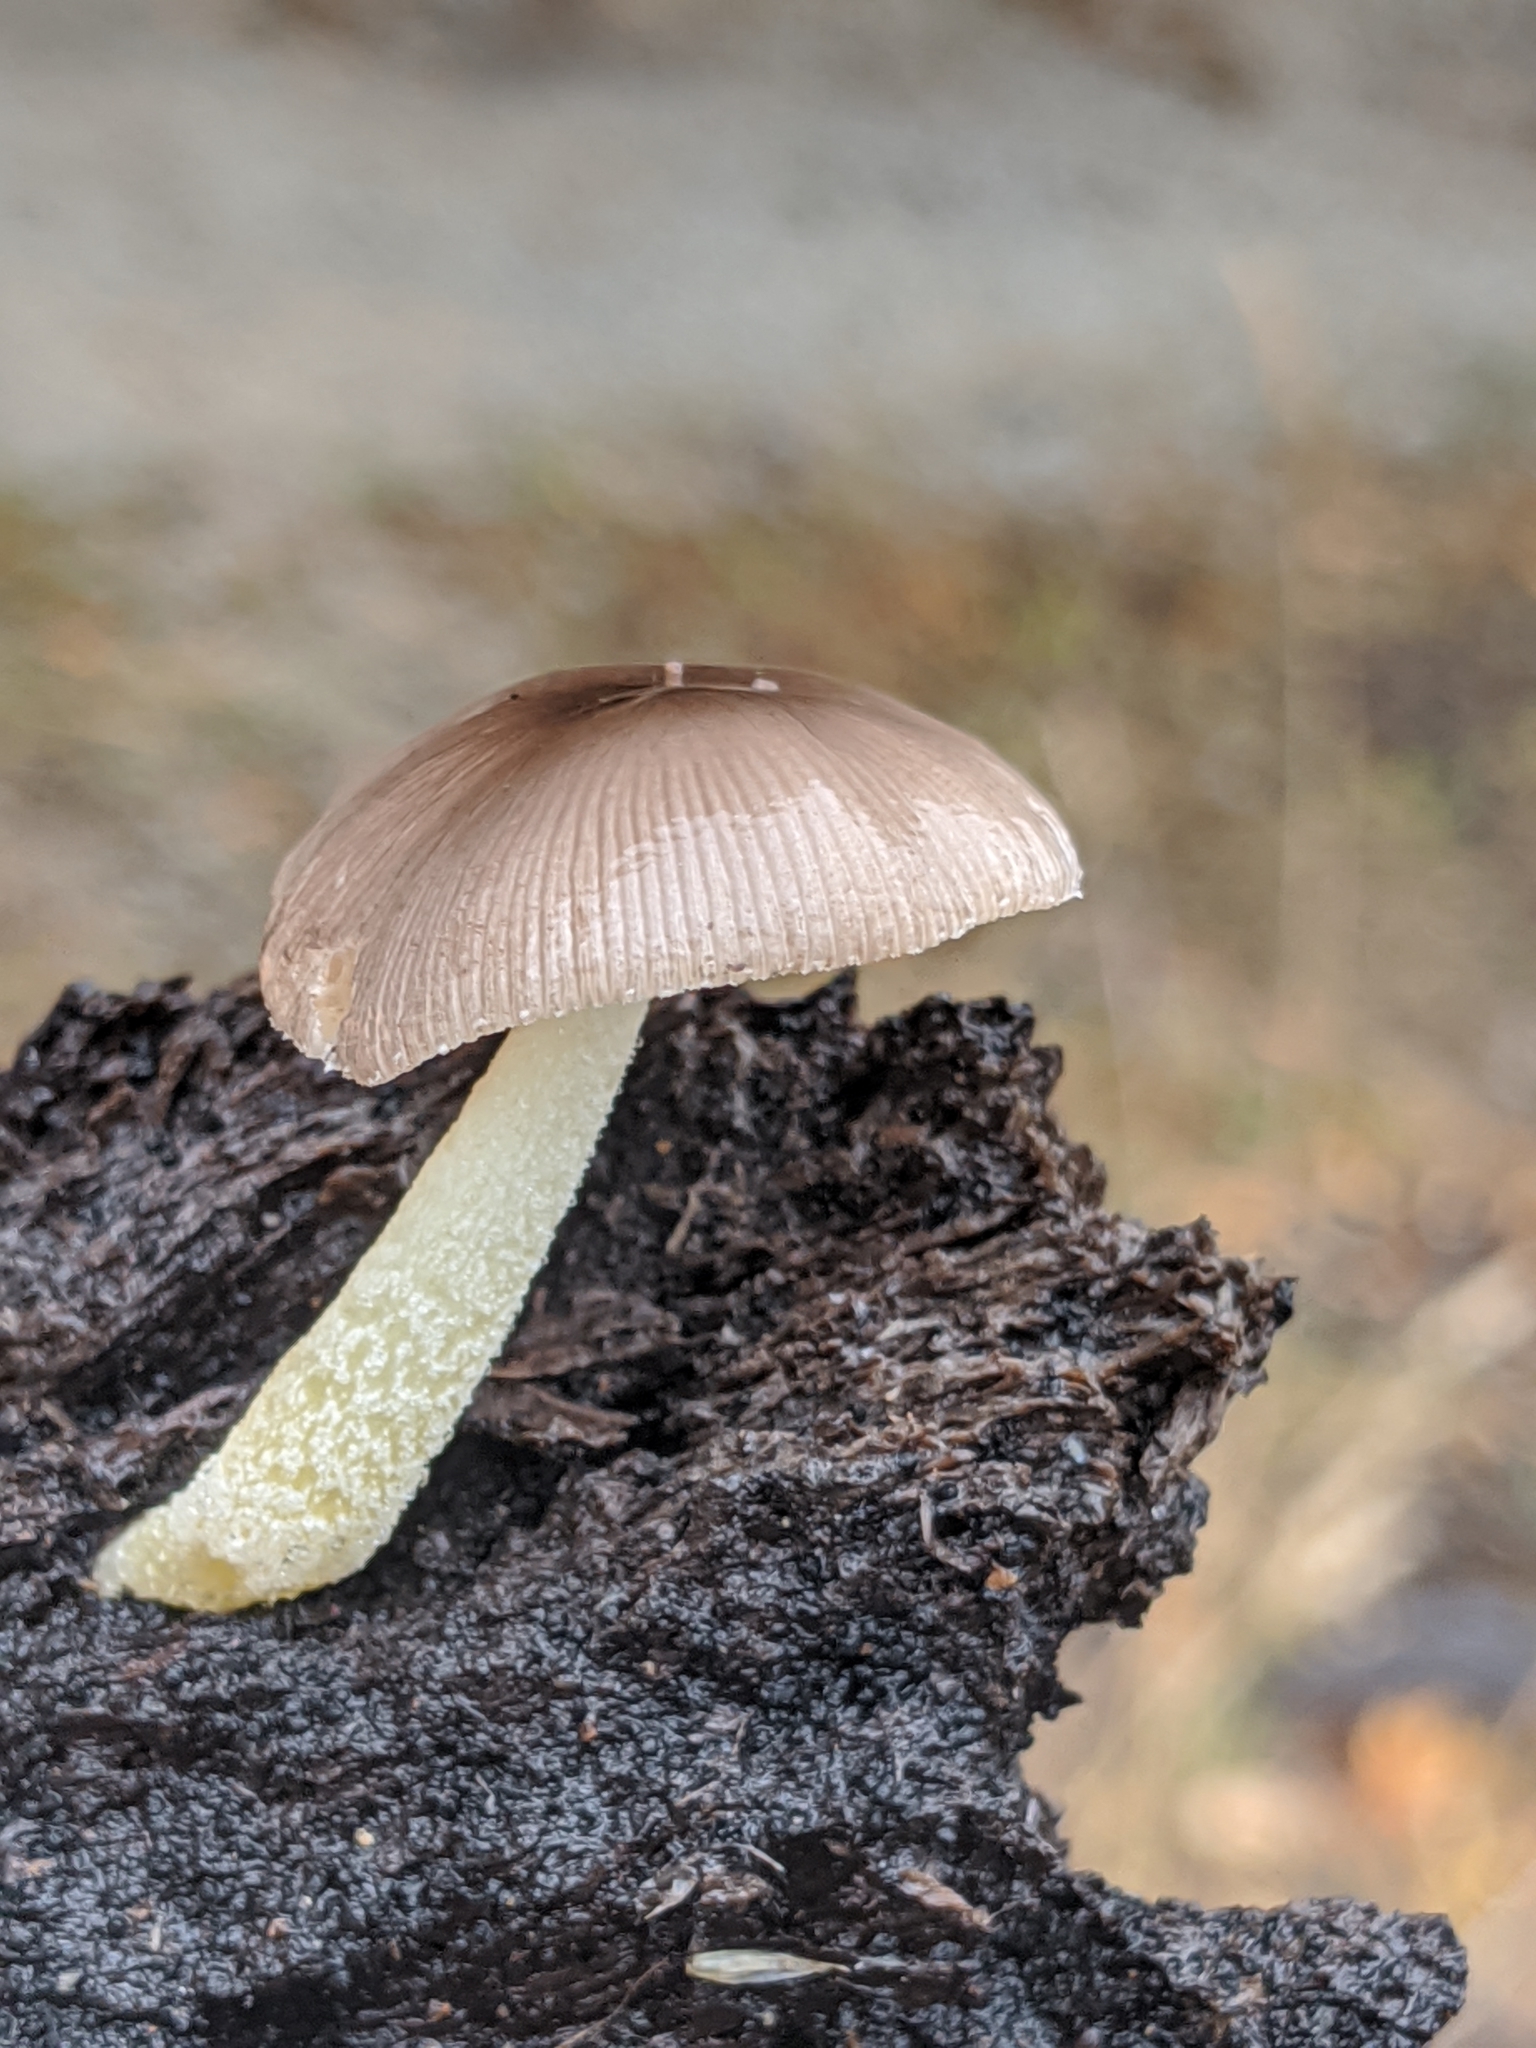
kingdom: Fungi
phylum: Basidiomycota
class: Agaricomycetes
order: Agaricales
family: Bolbitiaceae
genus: Bolbitius
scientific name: Bolbitius reticulatus
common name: Netted fieldcap
